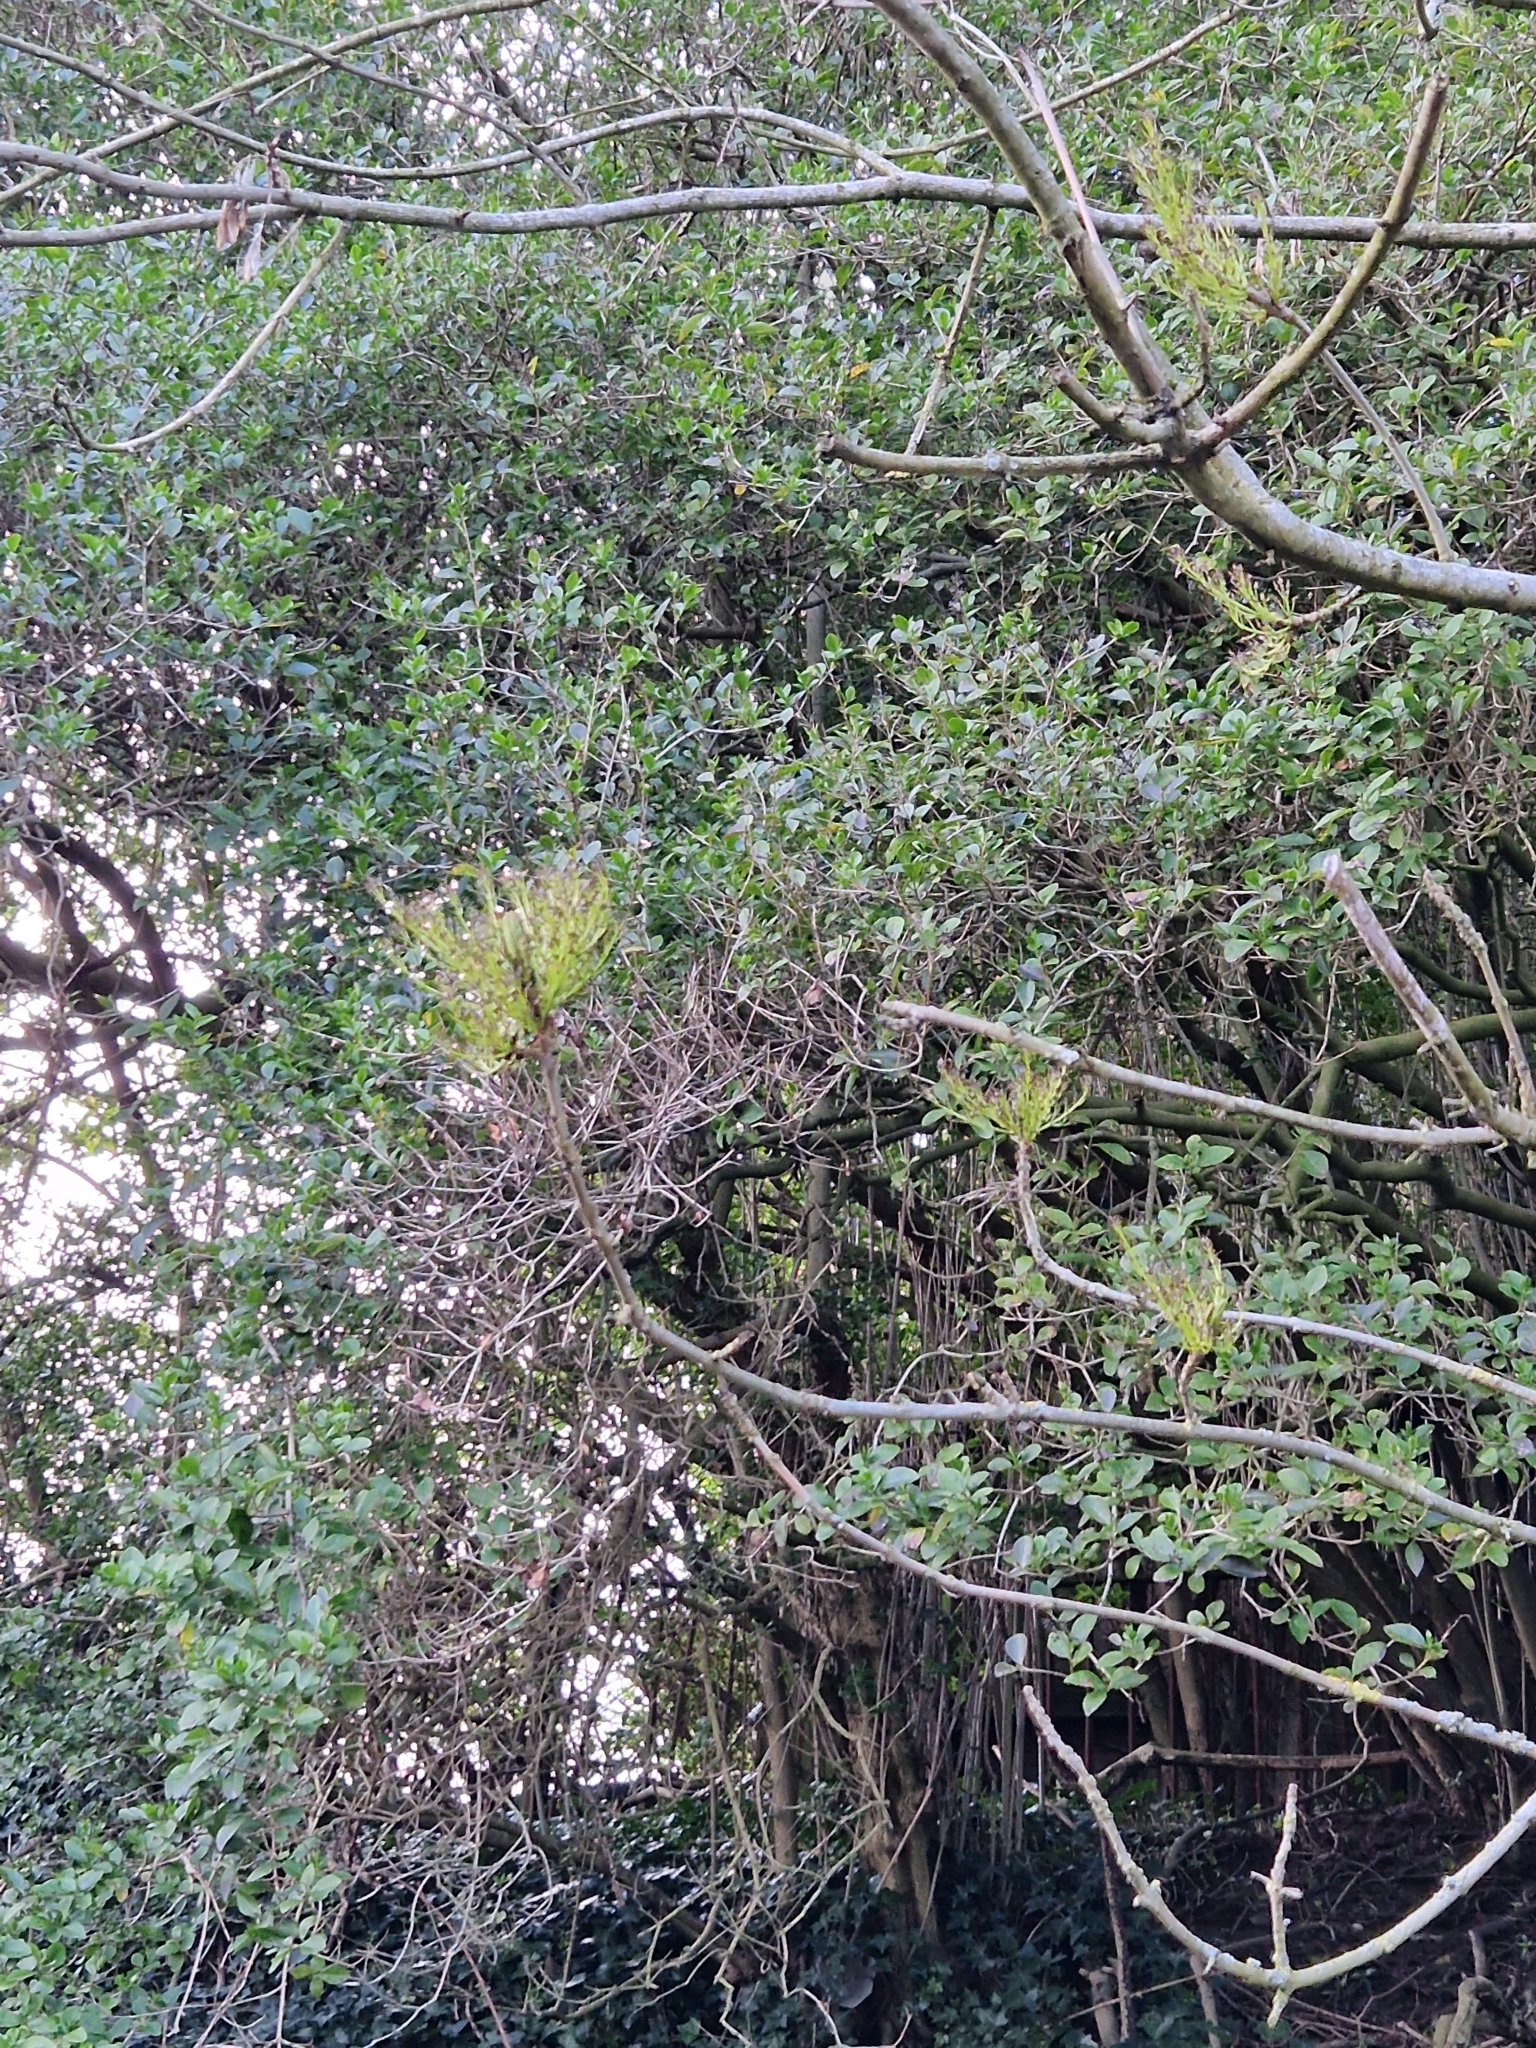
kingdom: Plantae
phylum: Tracheophyta
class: Magnoliopsida
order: Lamiales
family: Oleaceae
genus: Fraxinus
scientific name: Fraxinus excelsior
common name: European ash
